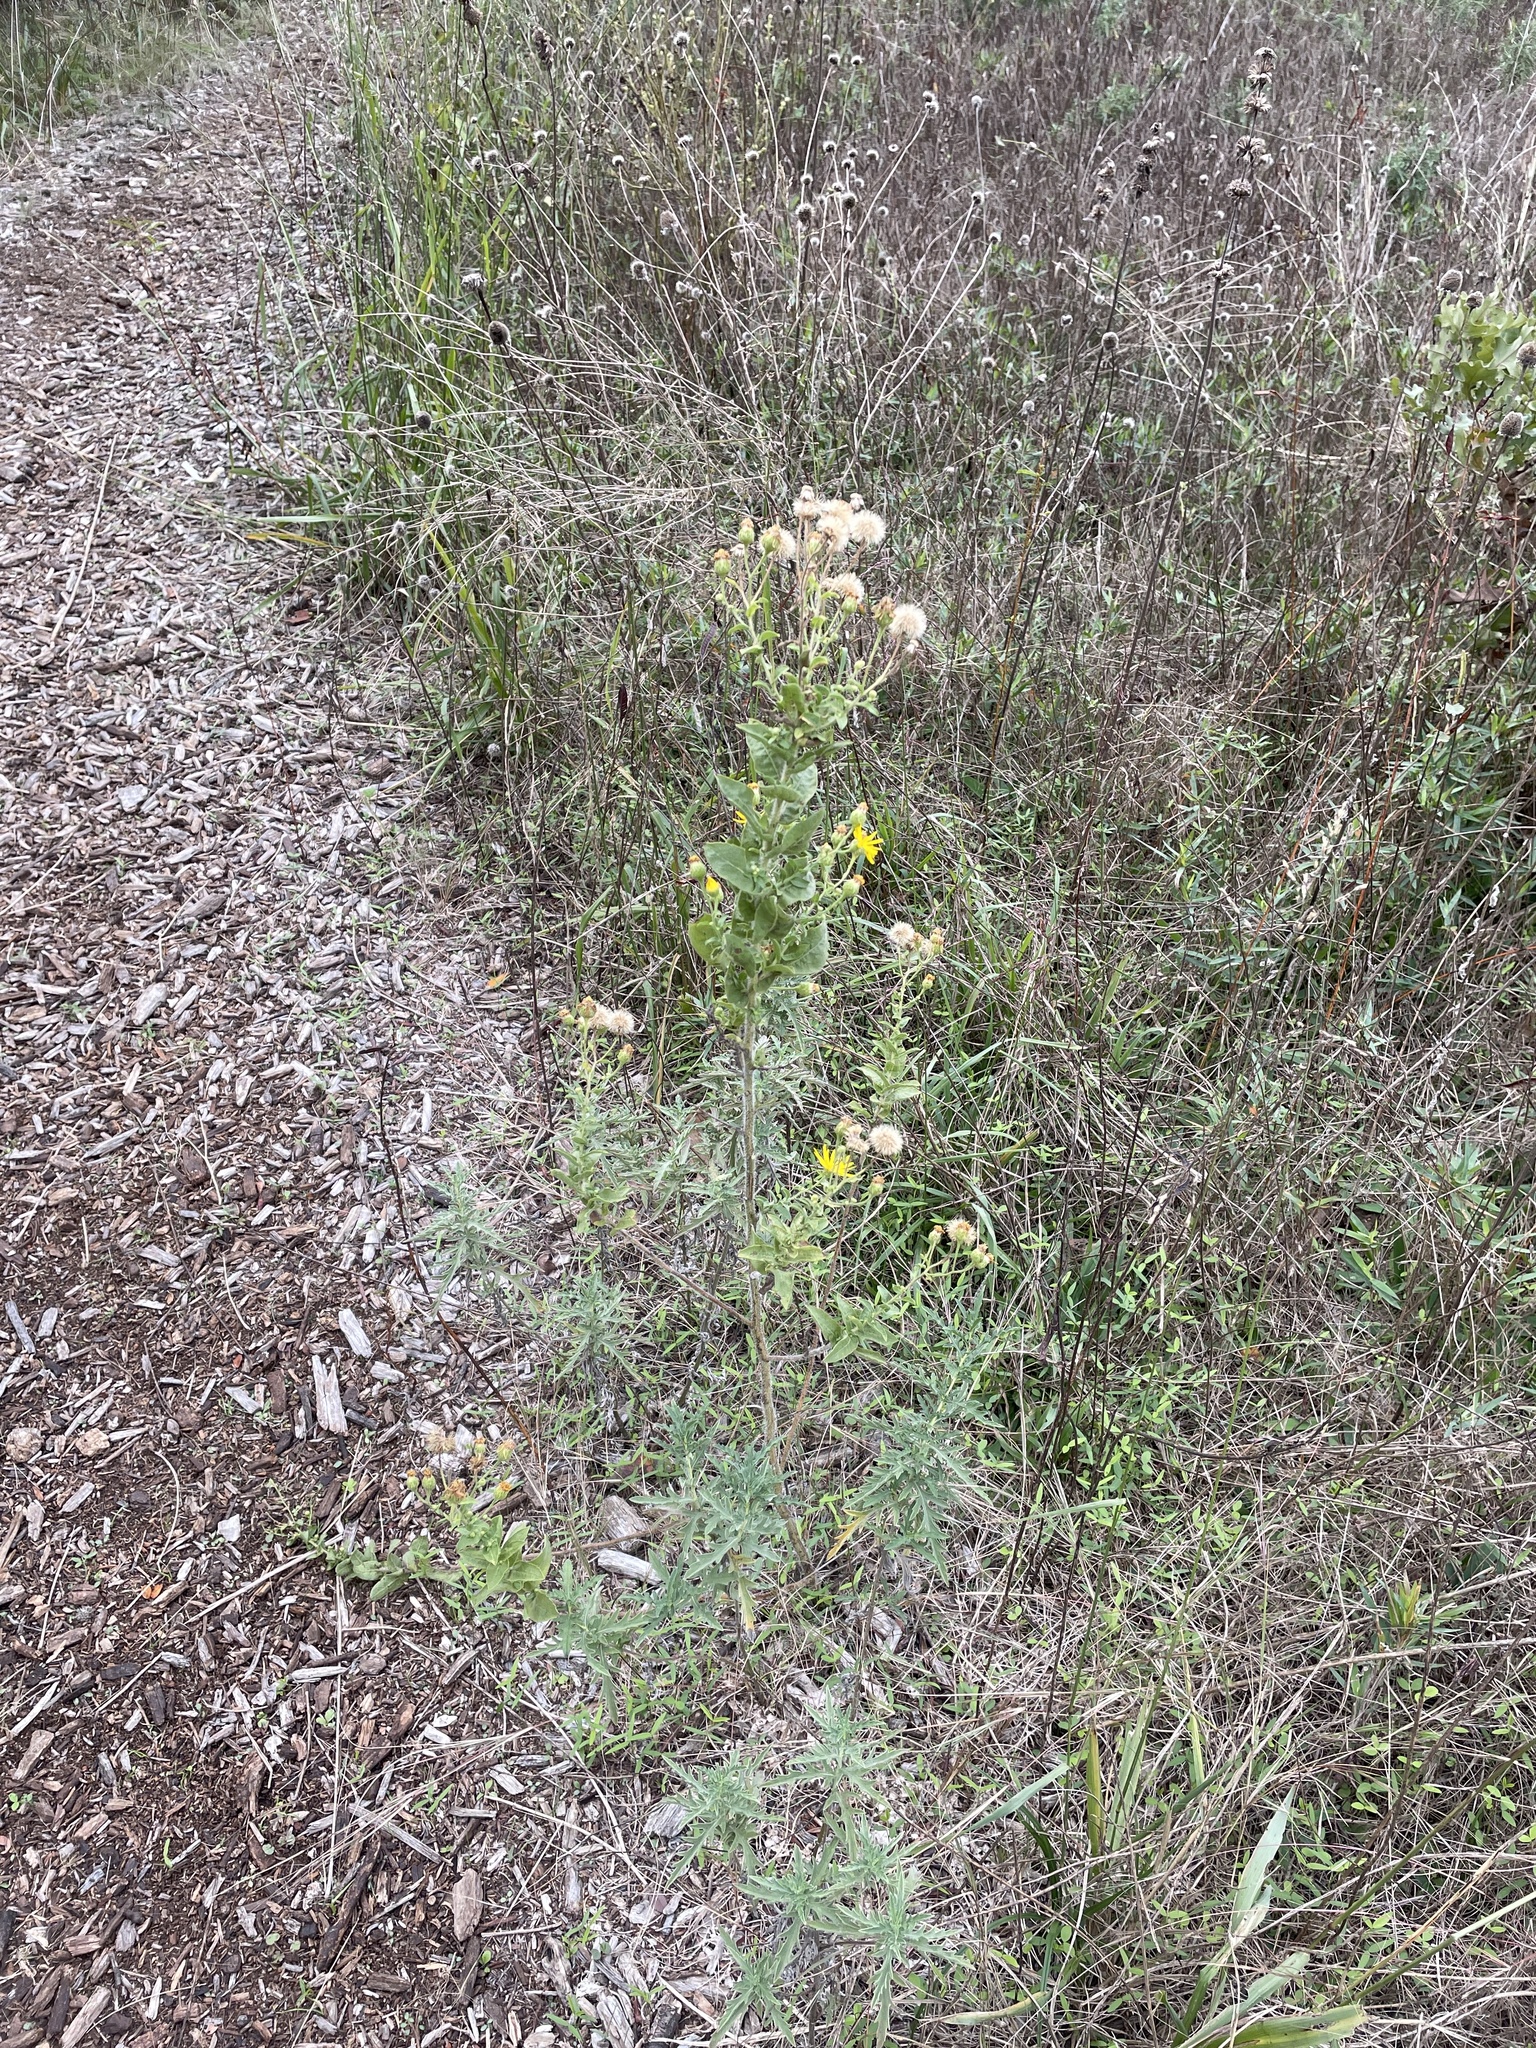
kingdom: Plantae
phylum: Tracheophyta
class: Magnoliopsida
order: Asterales
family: Asteraceae
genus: Heterotheca
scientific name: Heterotheca subaxillaris
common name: Camphorweed
